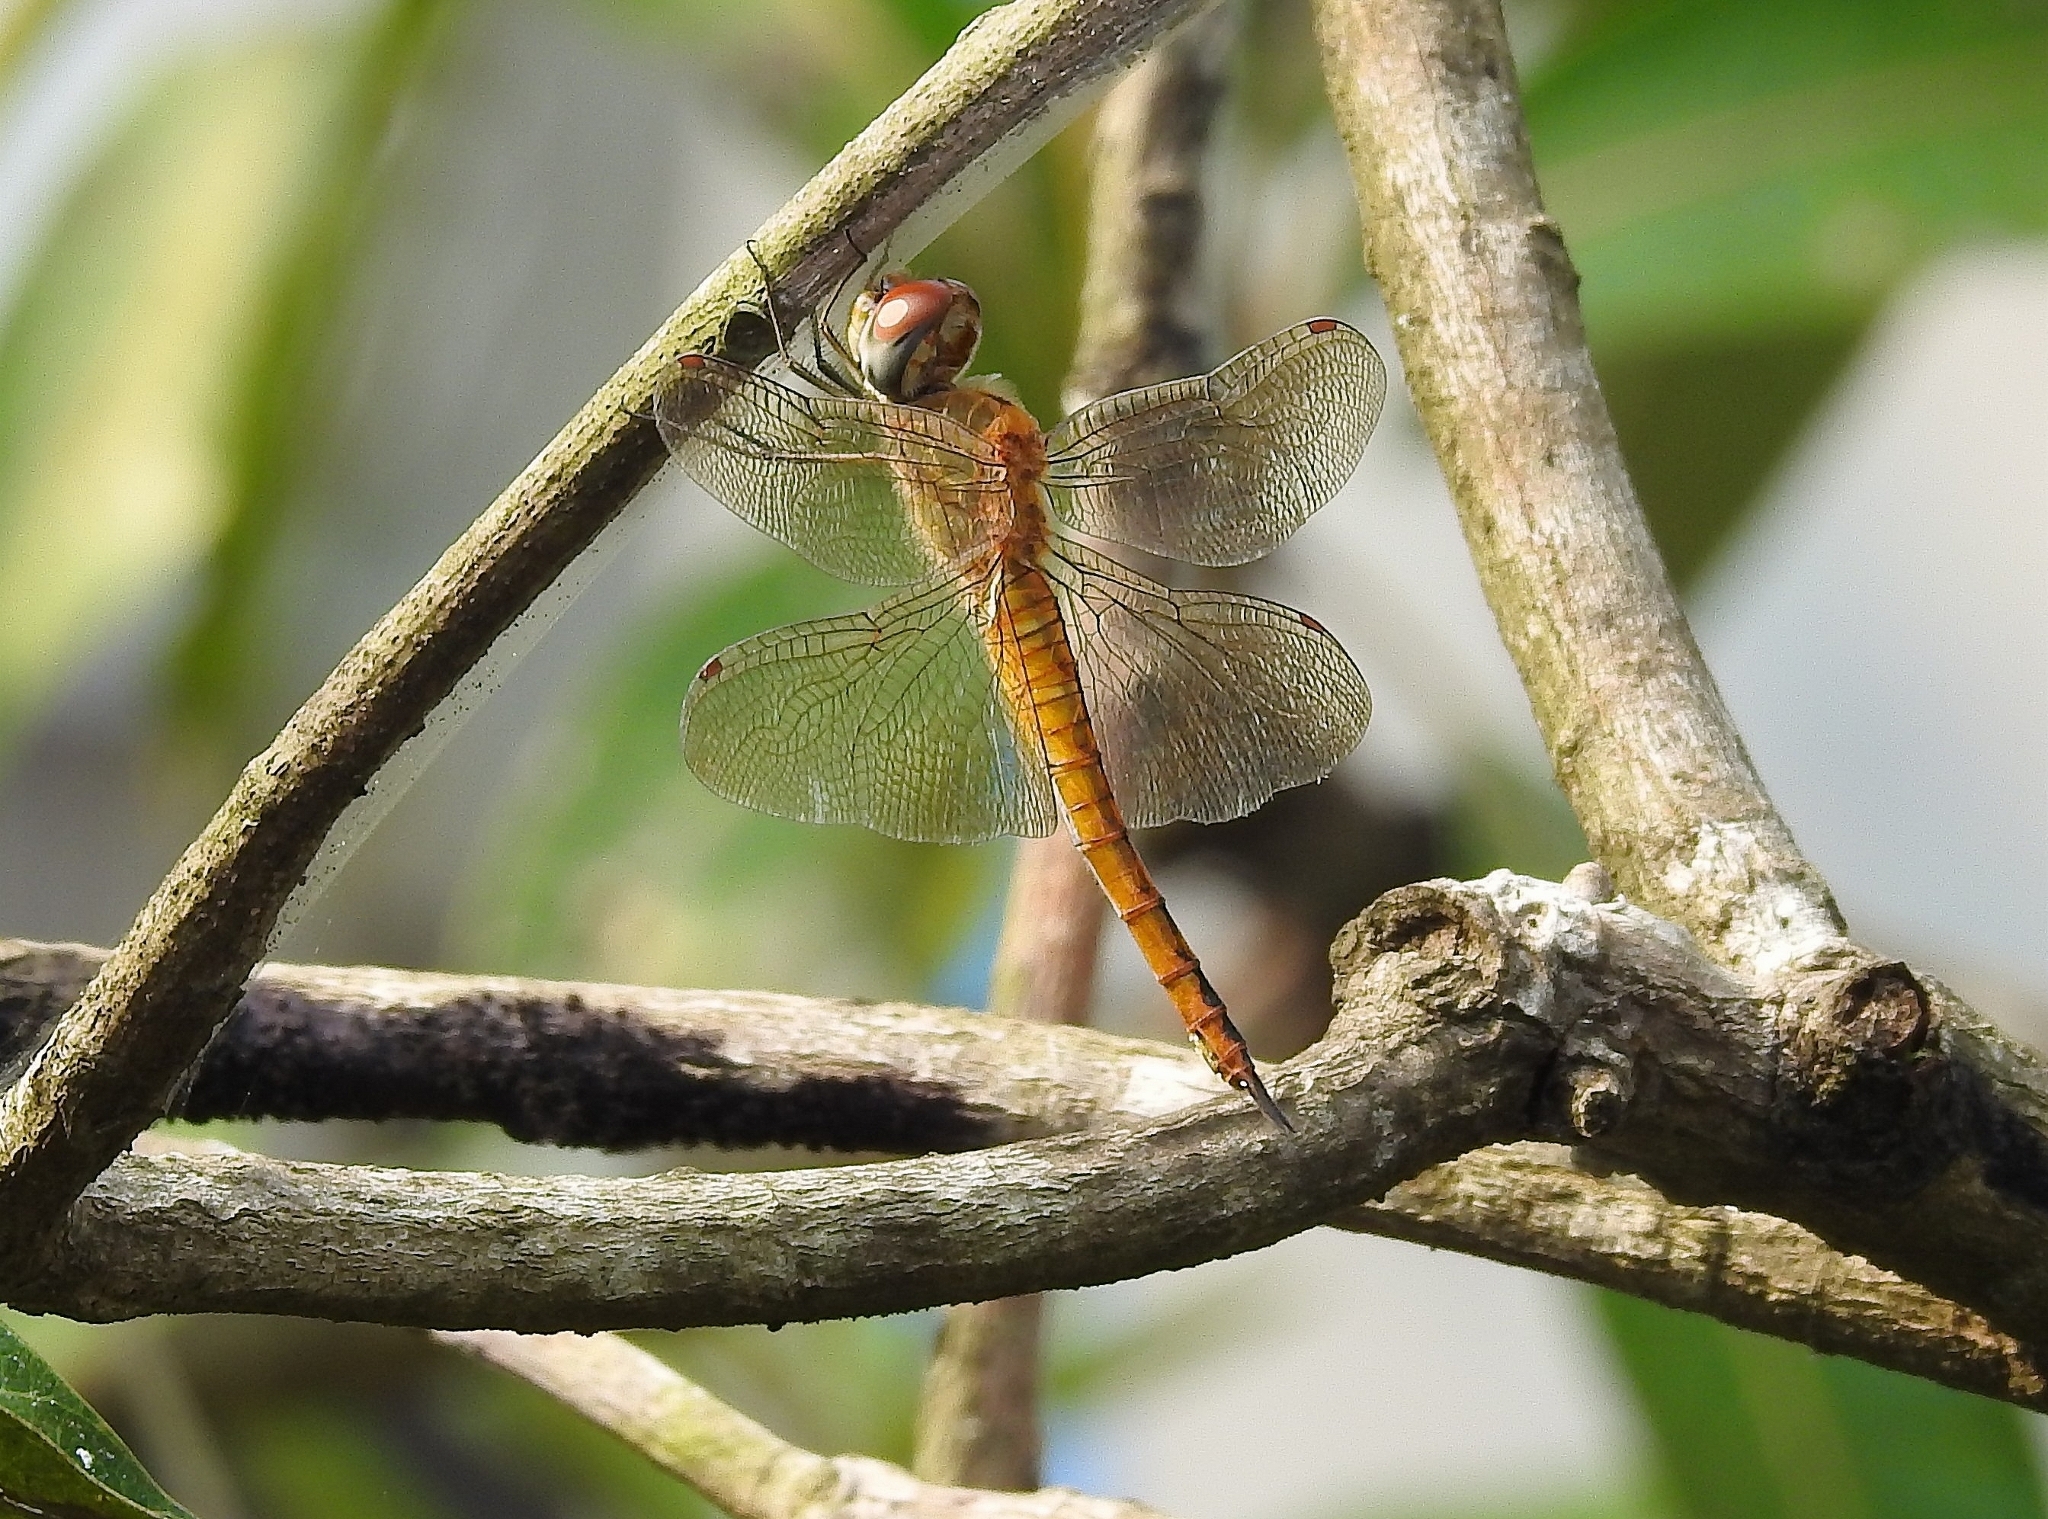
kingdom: Animalia
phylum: Arthropoda
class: Insecta
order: Odonata
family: Libellulidae
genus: Pantala
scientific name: Pantala flavescens
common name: Wandering glider
